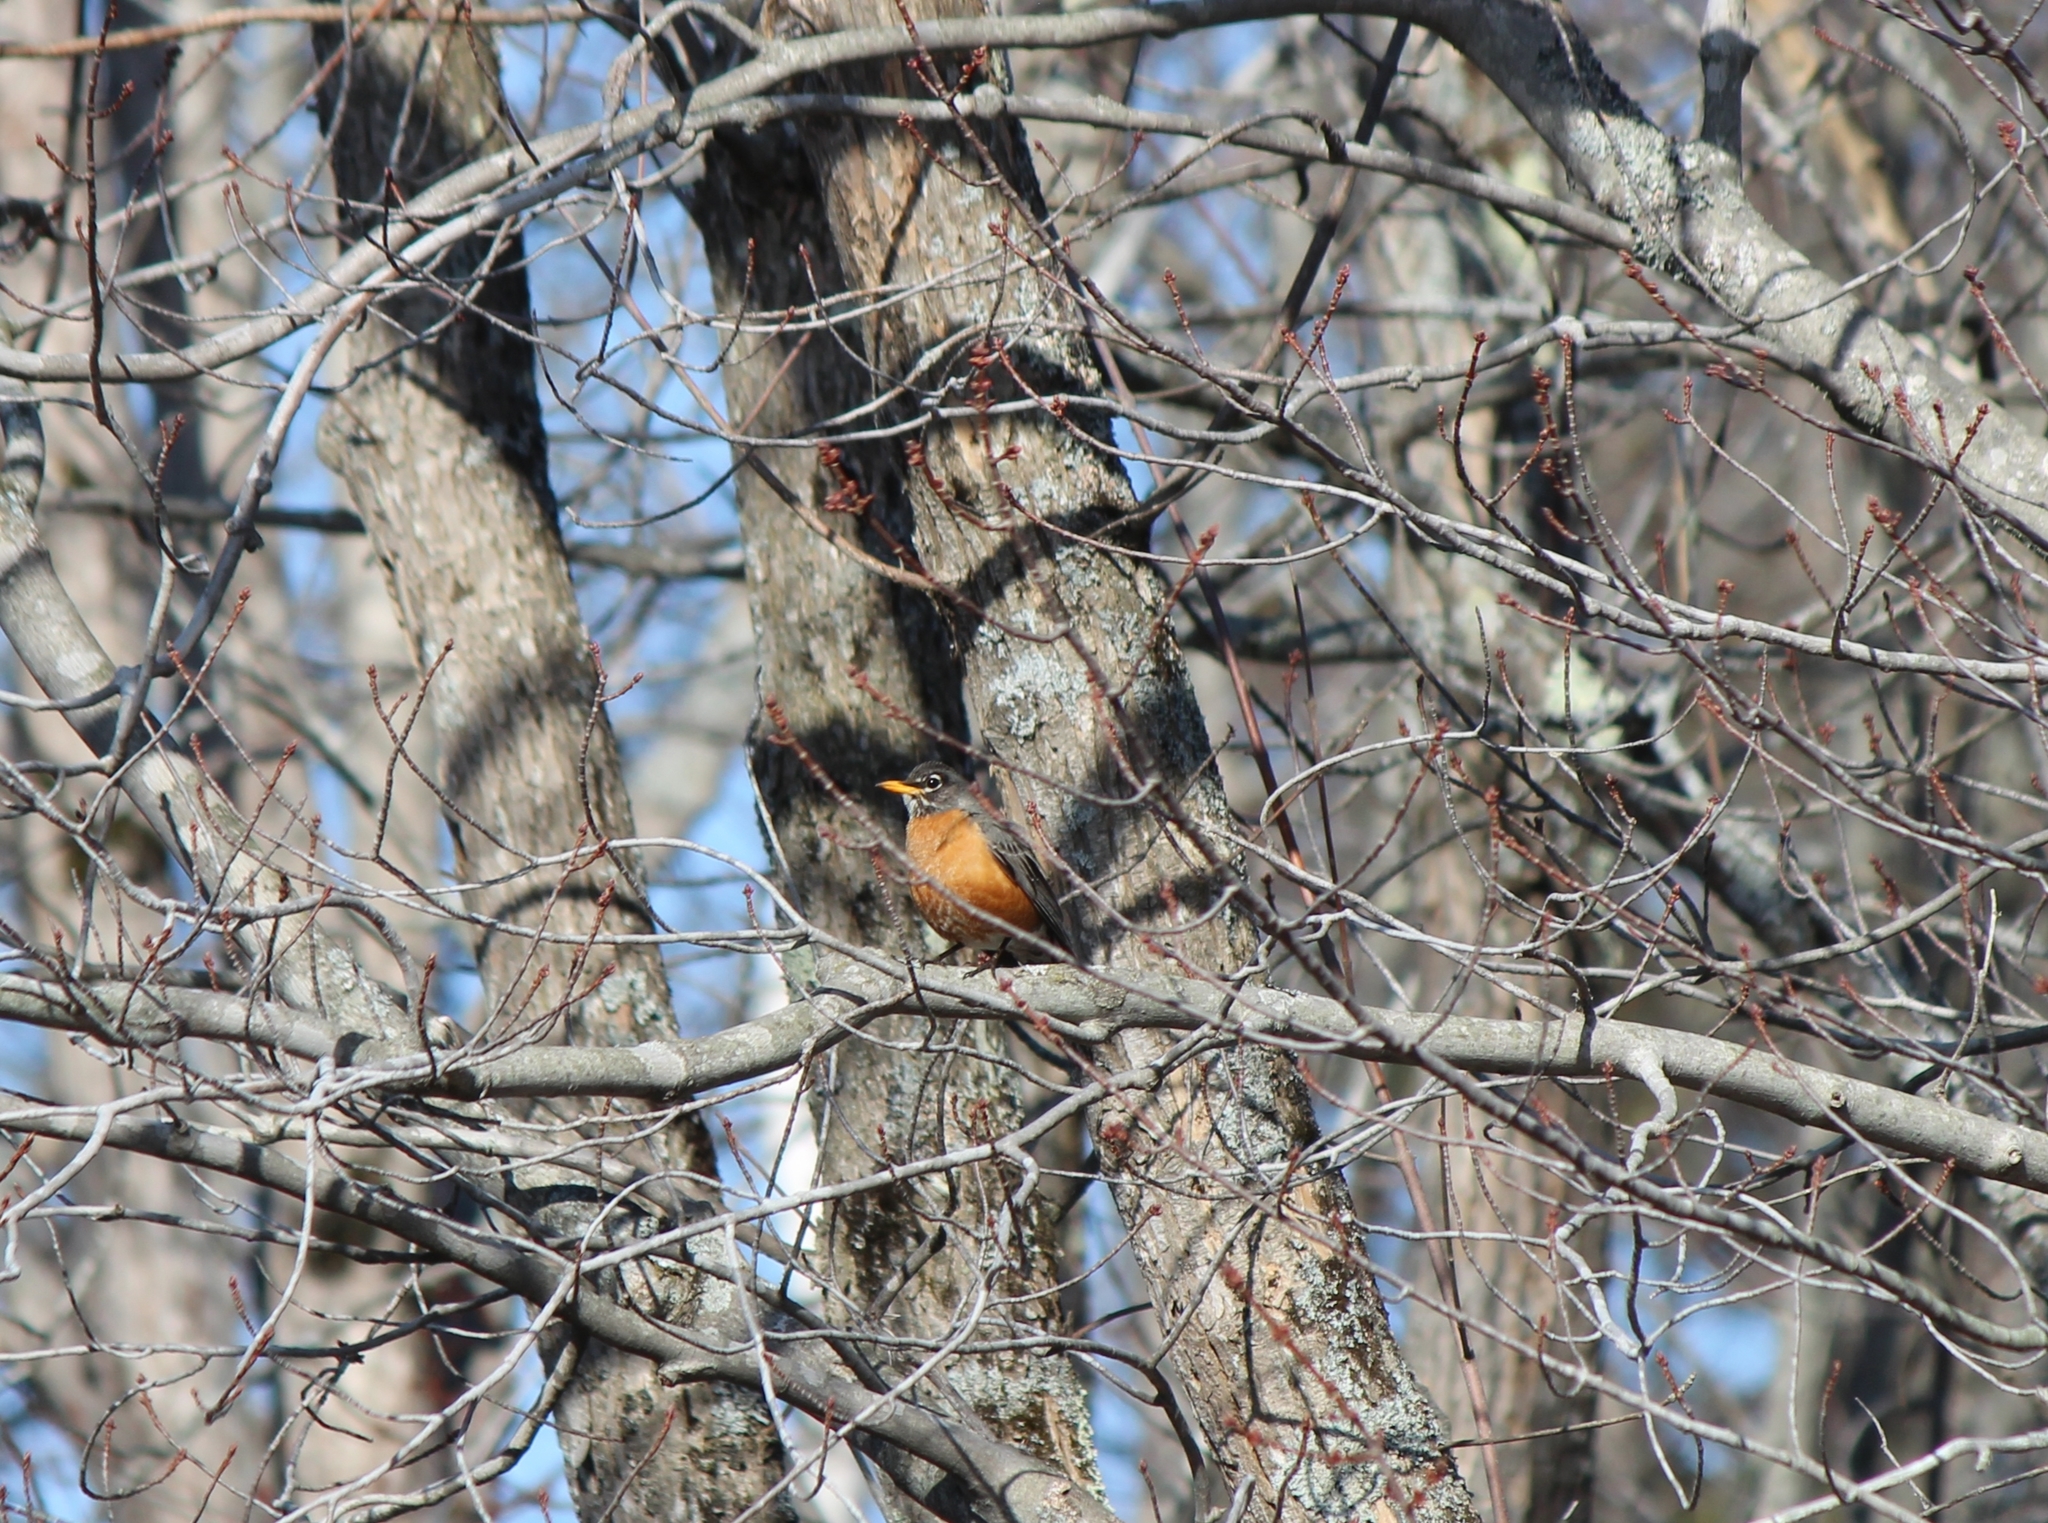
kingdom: Animalia
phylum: Chordata
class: Aves
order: Passeriformes
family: Turdidae
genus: Turdus
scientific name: Turdus migratorius
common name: American robin
